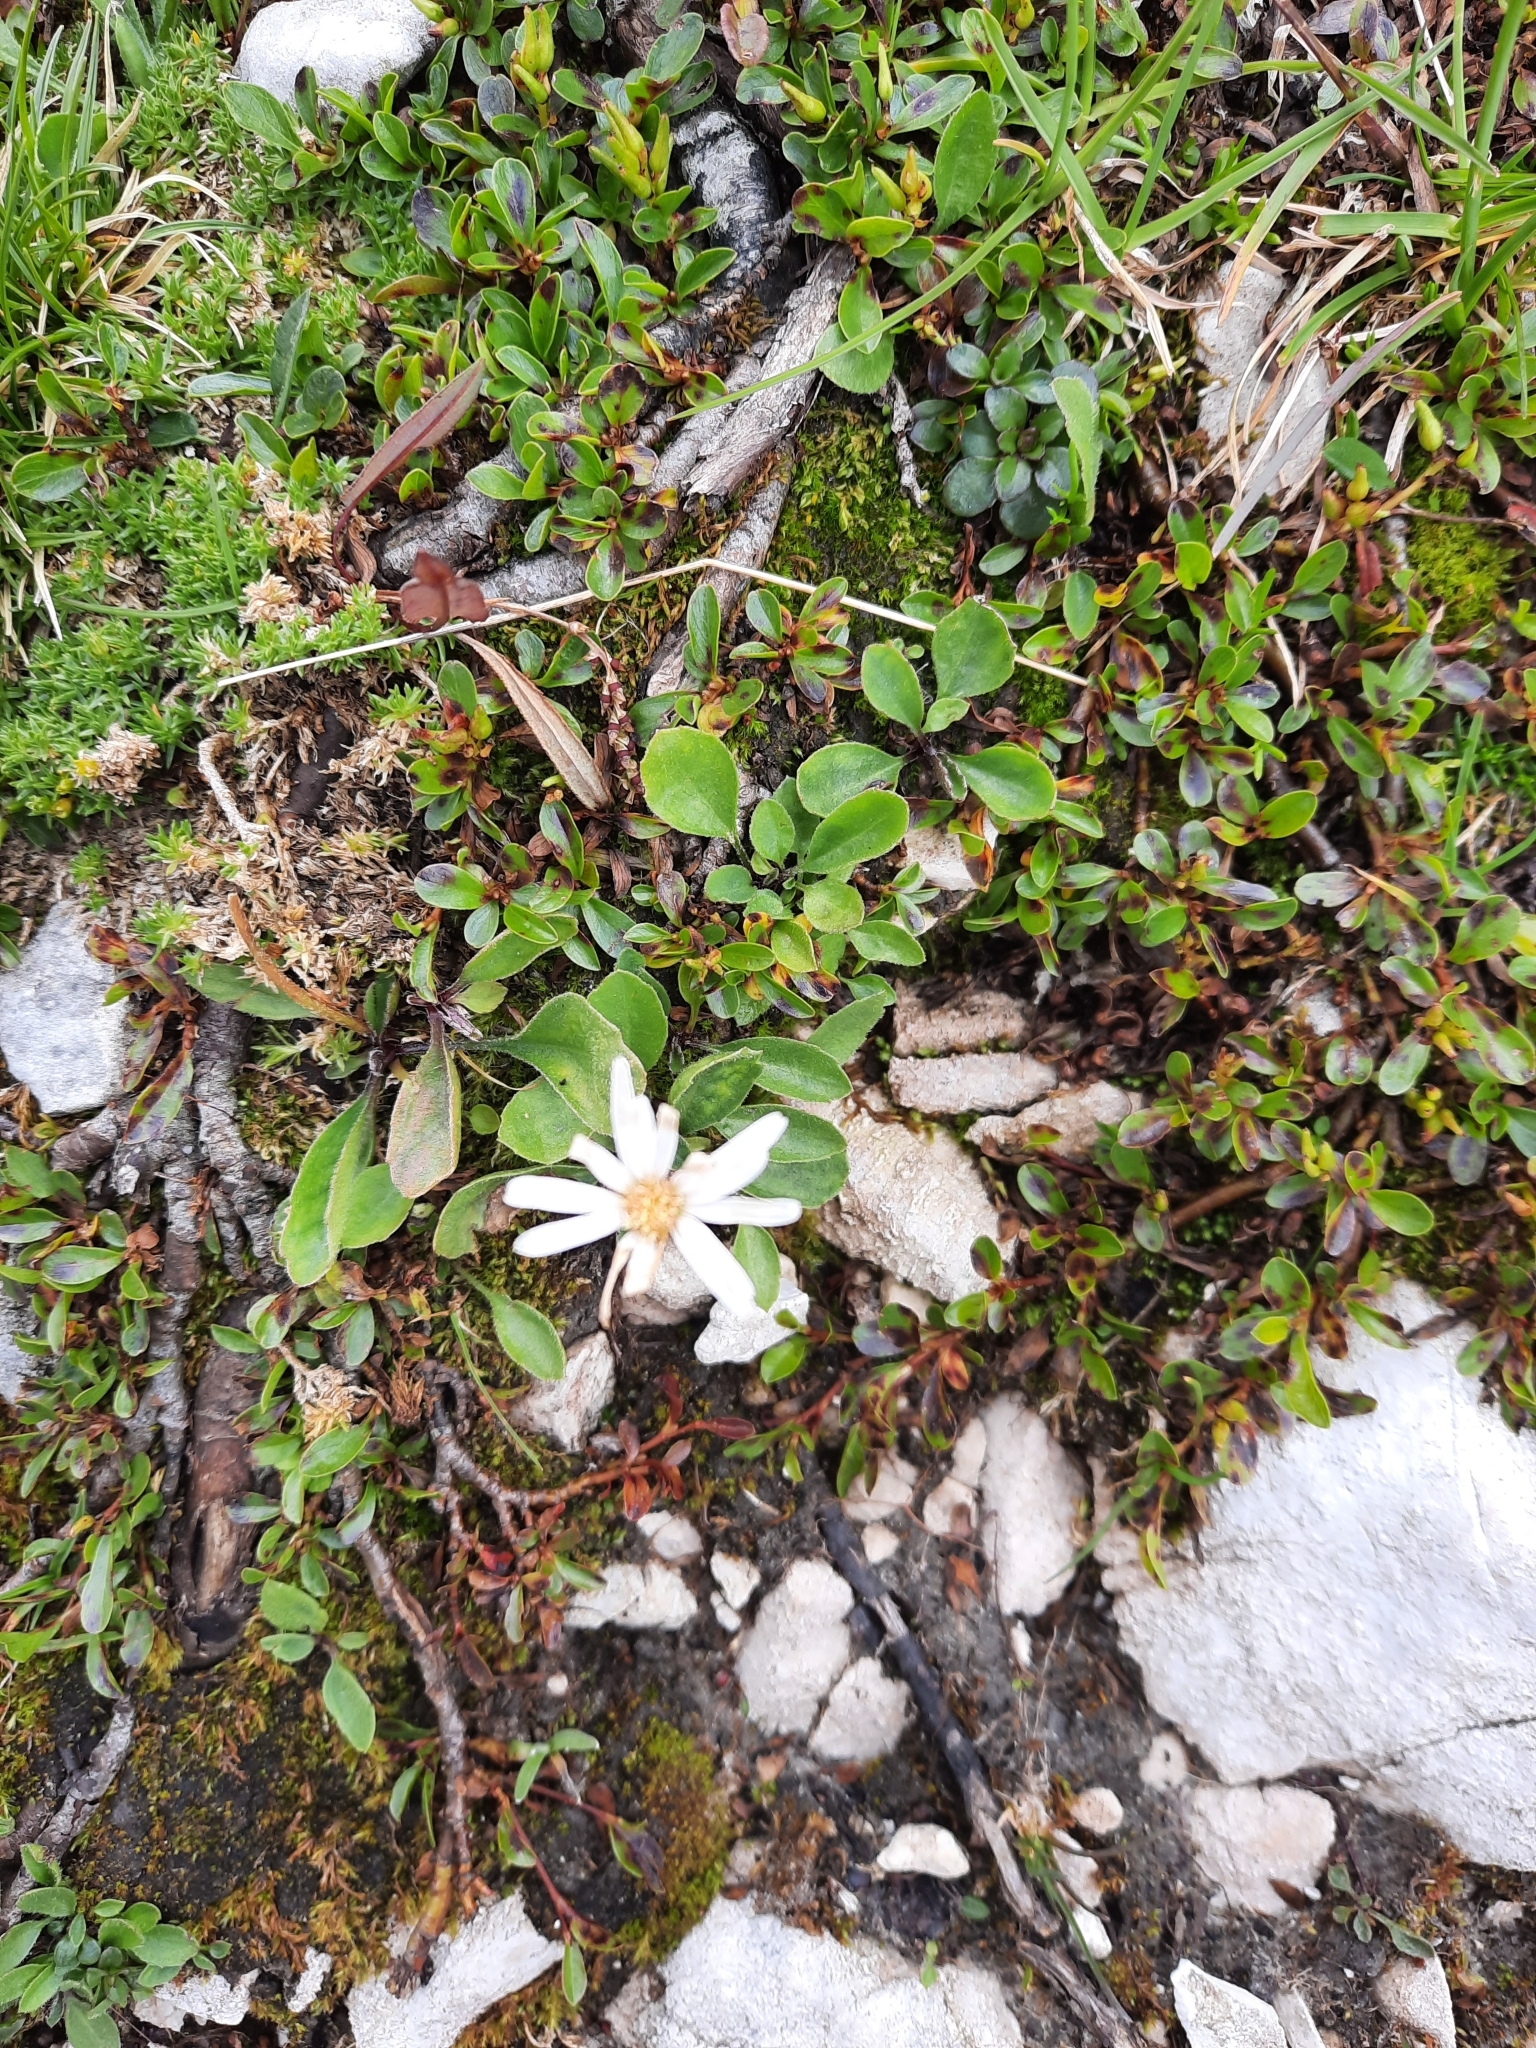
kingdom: Plantae
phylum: Tracheophyta
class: Magnoliopsida
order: Asterales
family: Asteraceae
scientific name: Asteraceae
